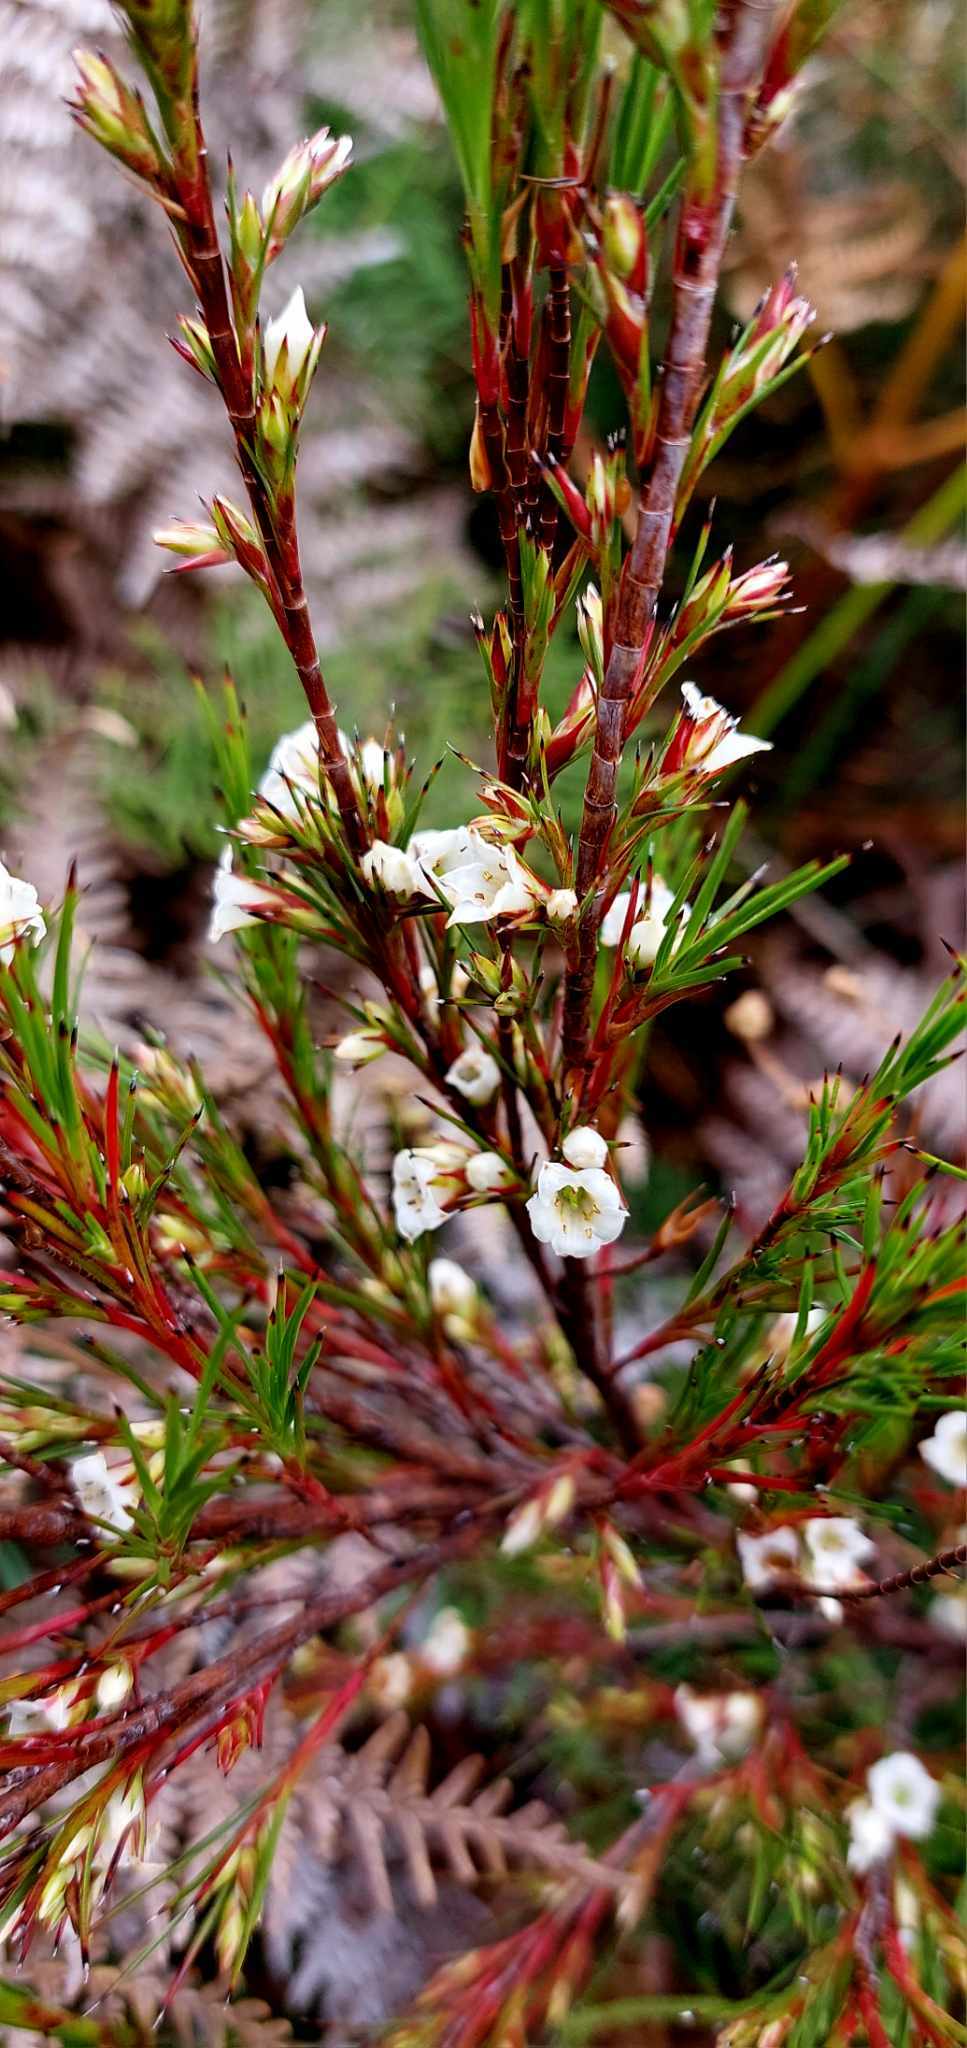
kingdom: Plantae
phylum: Tracheophyta
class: Magnoliopsida
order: Ericales
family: Ericaceae
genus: Dracophyllum
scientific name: Dracophyllum scoparium
